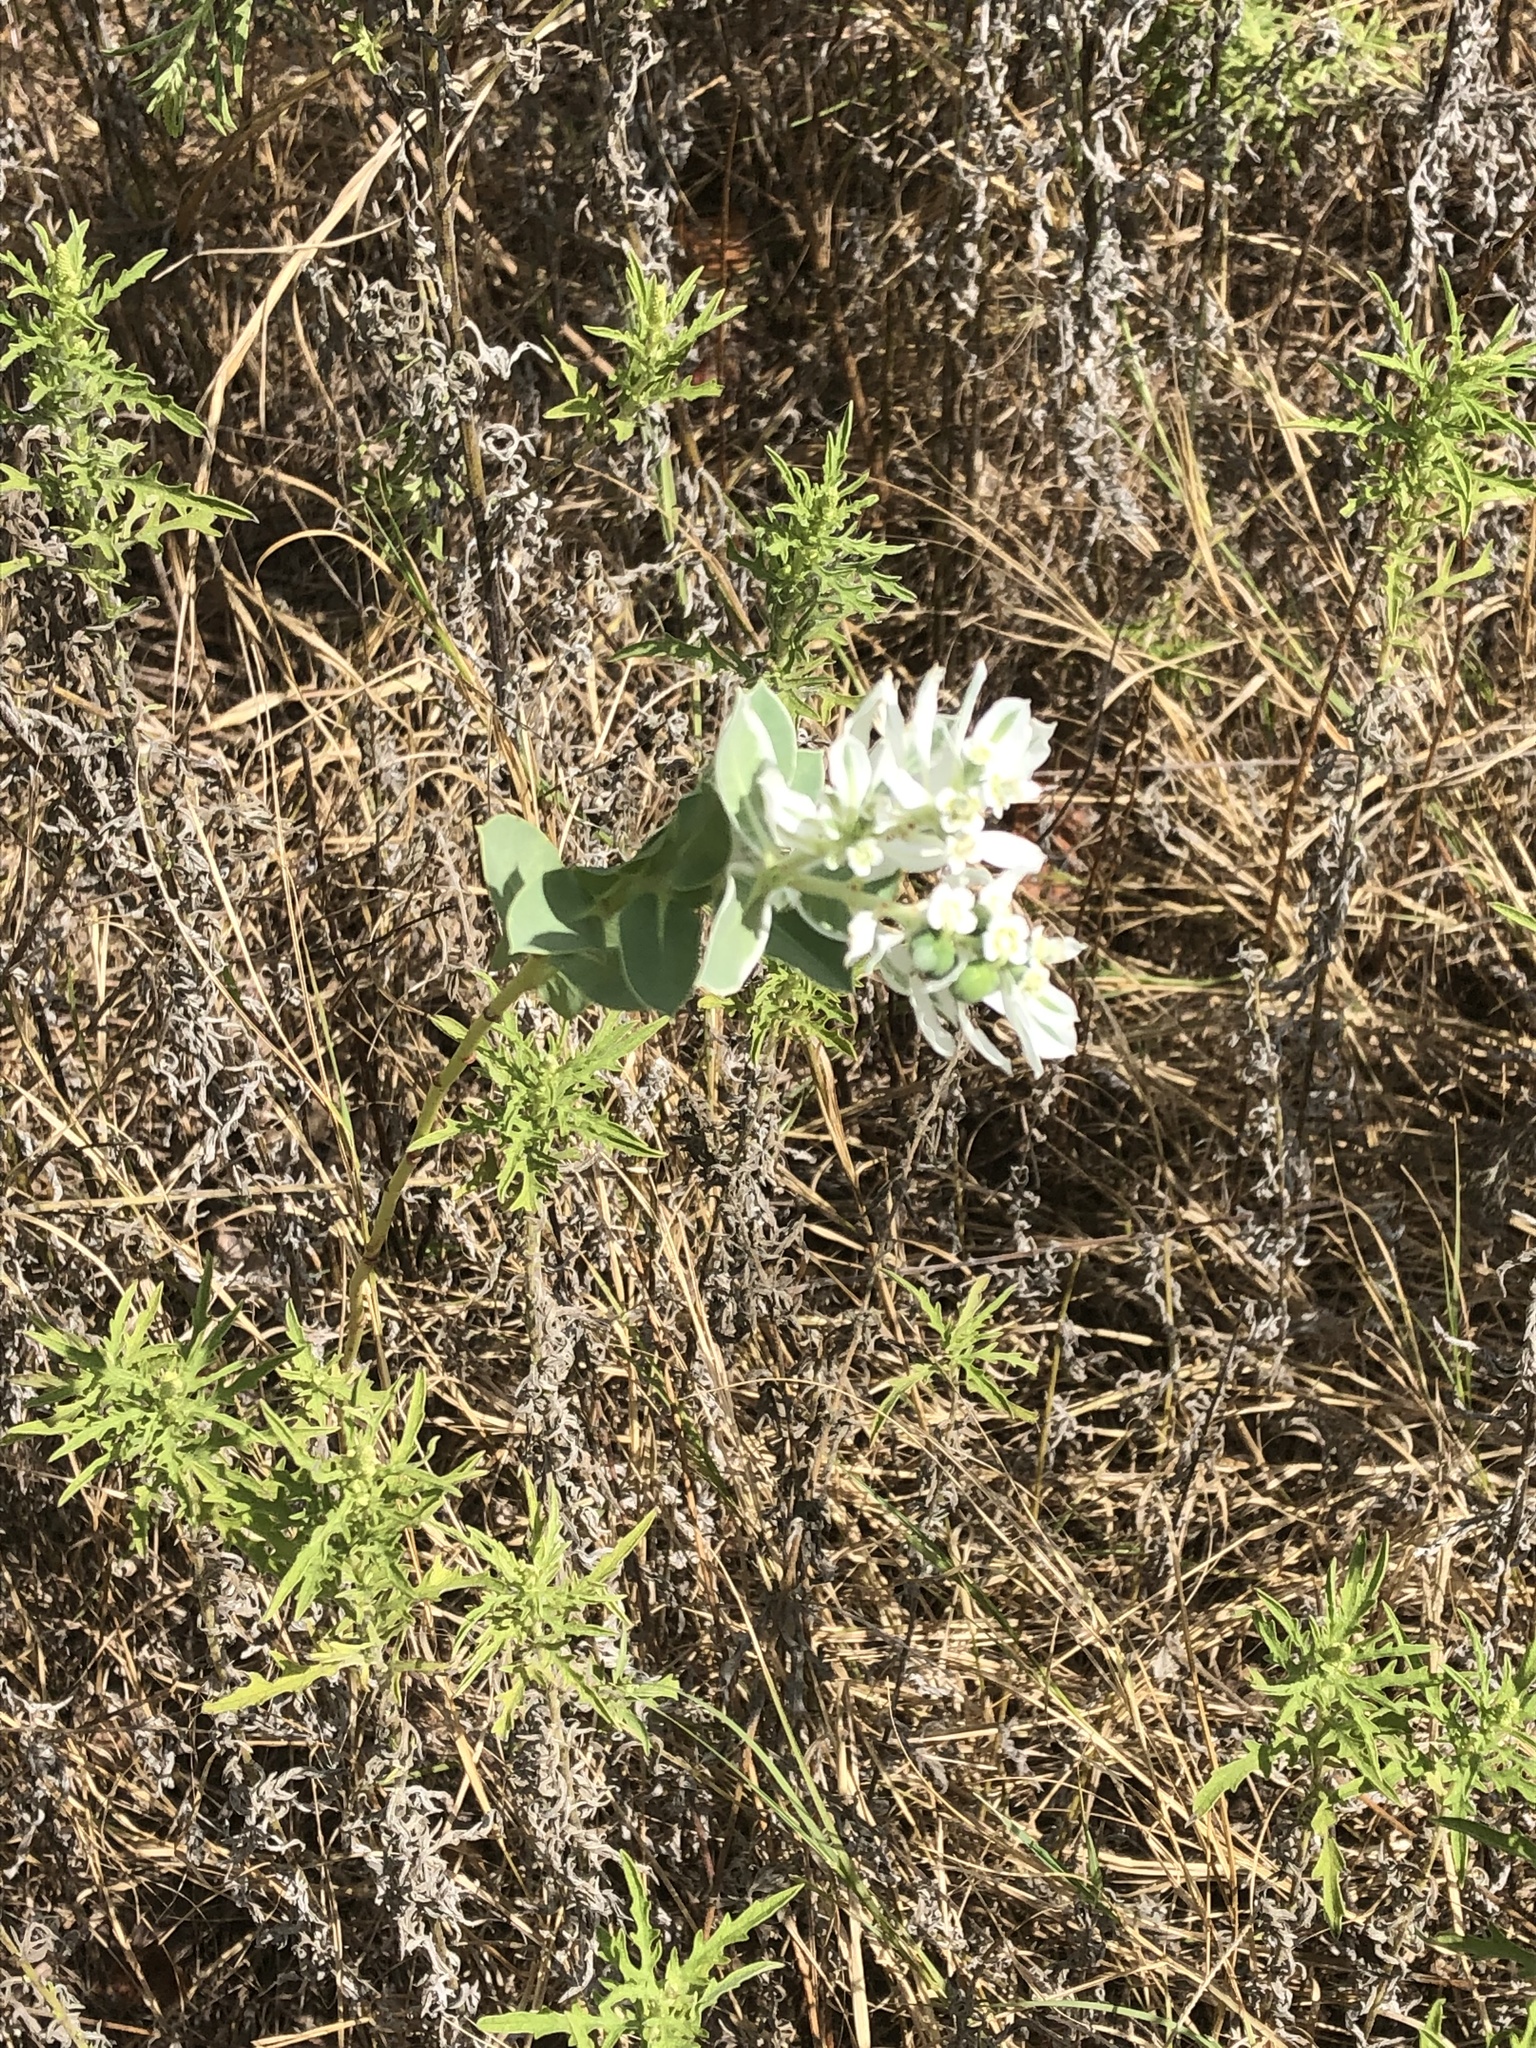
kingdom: Plantae
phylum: Tracheophyta
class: Magnoliopsida
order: Malpighiales
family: Euphorbiaceae
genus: Euphorbia
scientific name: Euphorbia marginata
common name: Ghostweed
